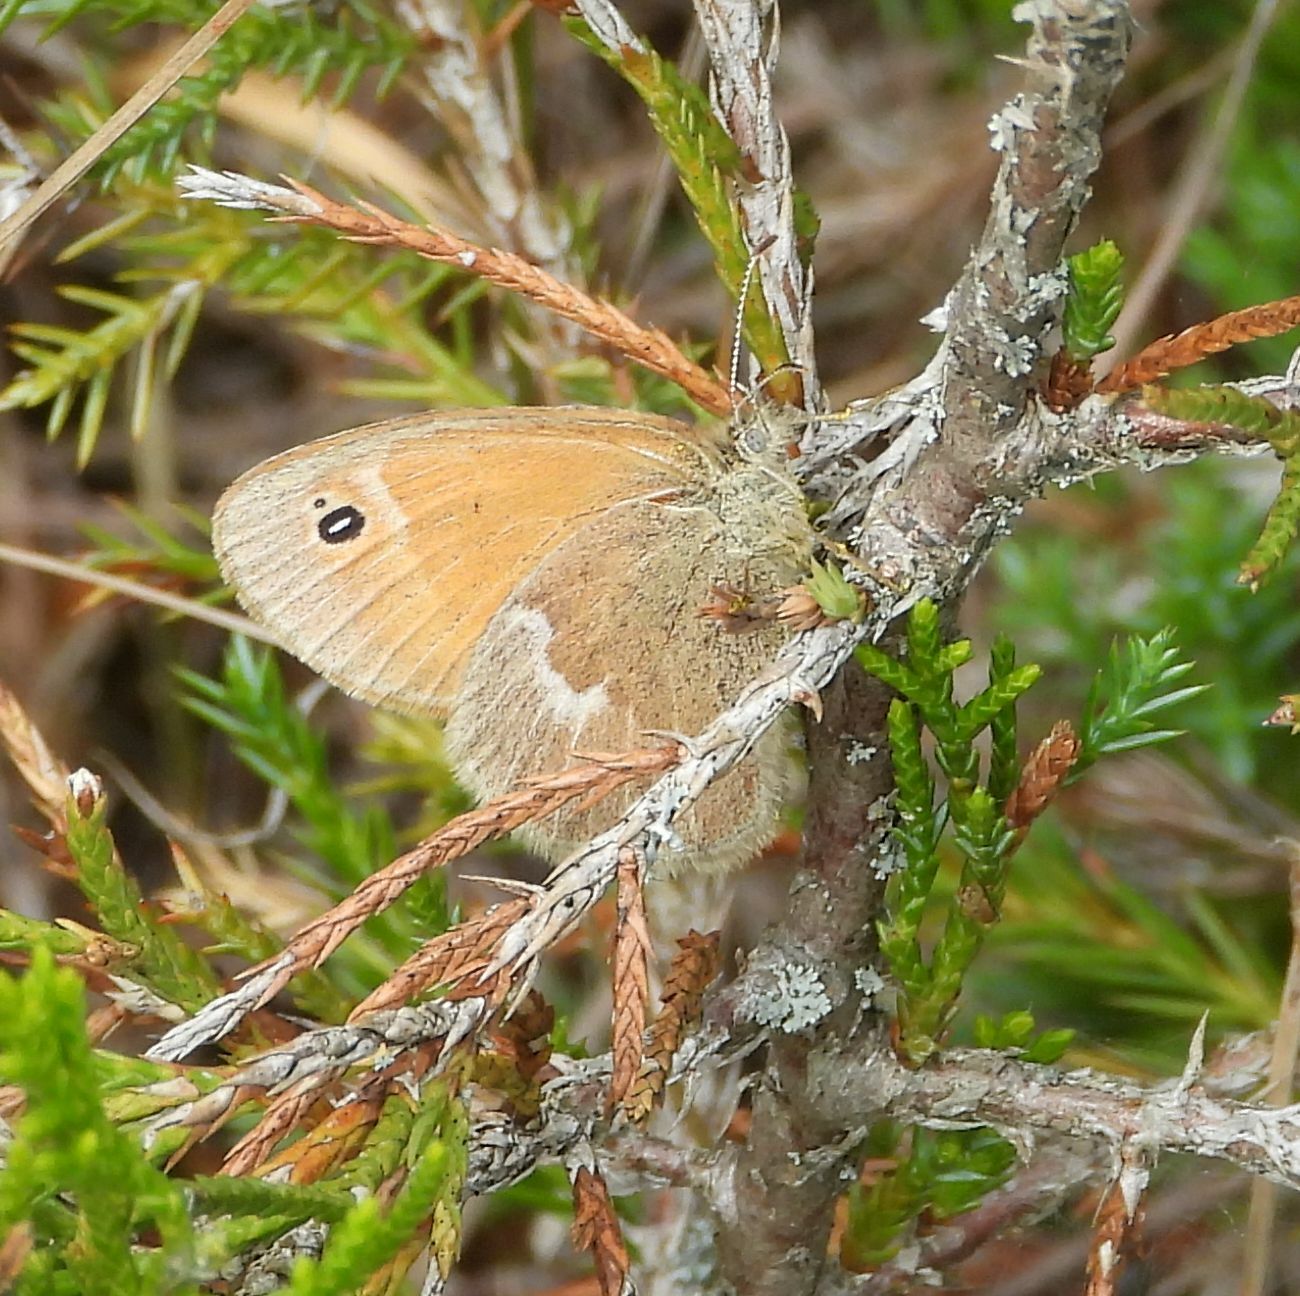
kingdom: Animalia
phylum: Arthropoda
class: Insecta
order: Lepidoptera
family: Nymphalidae
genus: Coenonympha
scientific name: Coenonympha california
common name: Common ringlet
